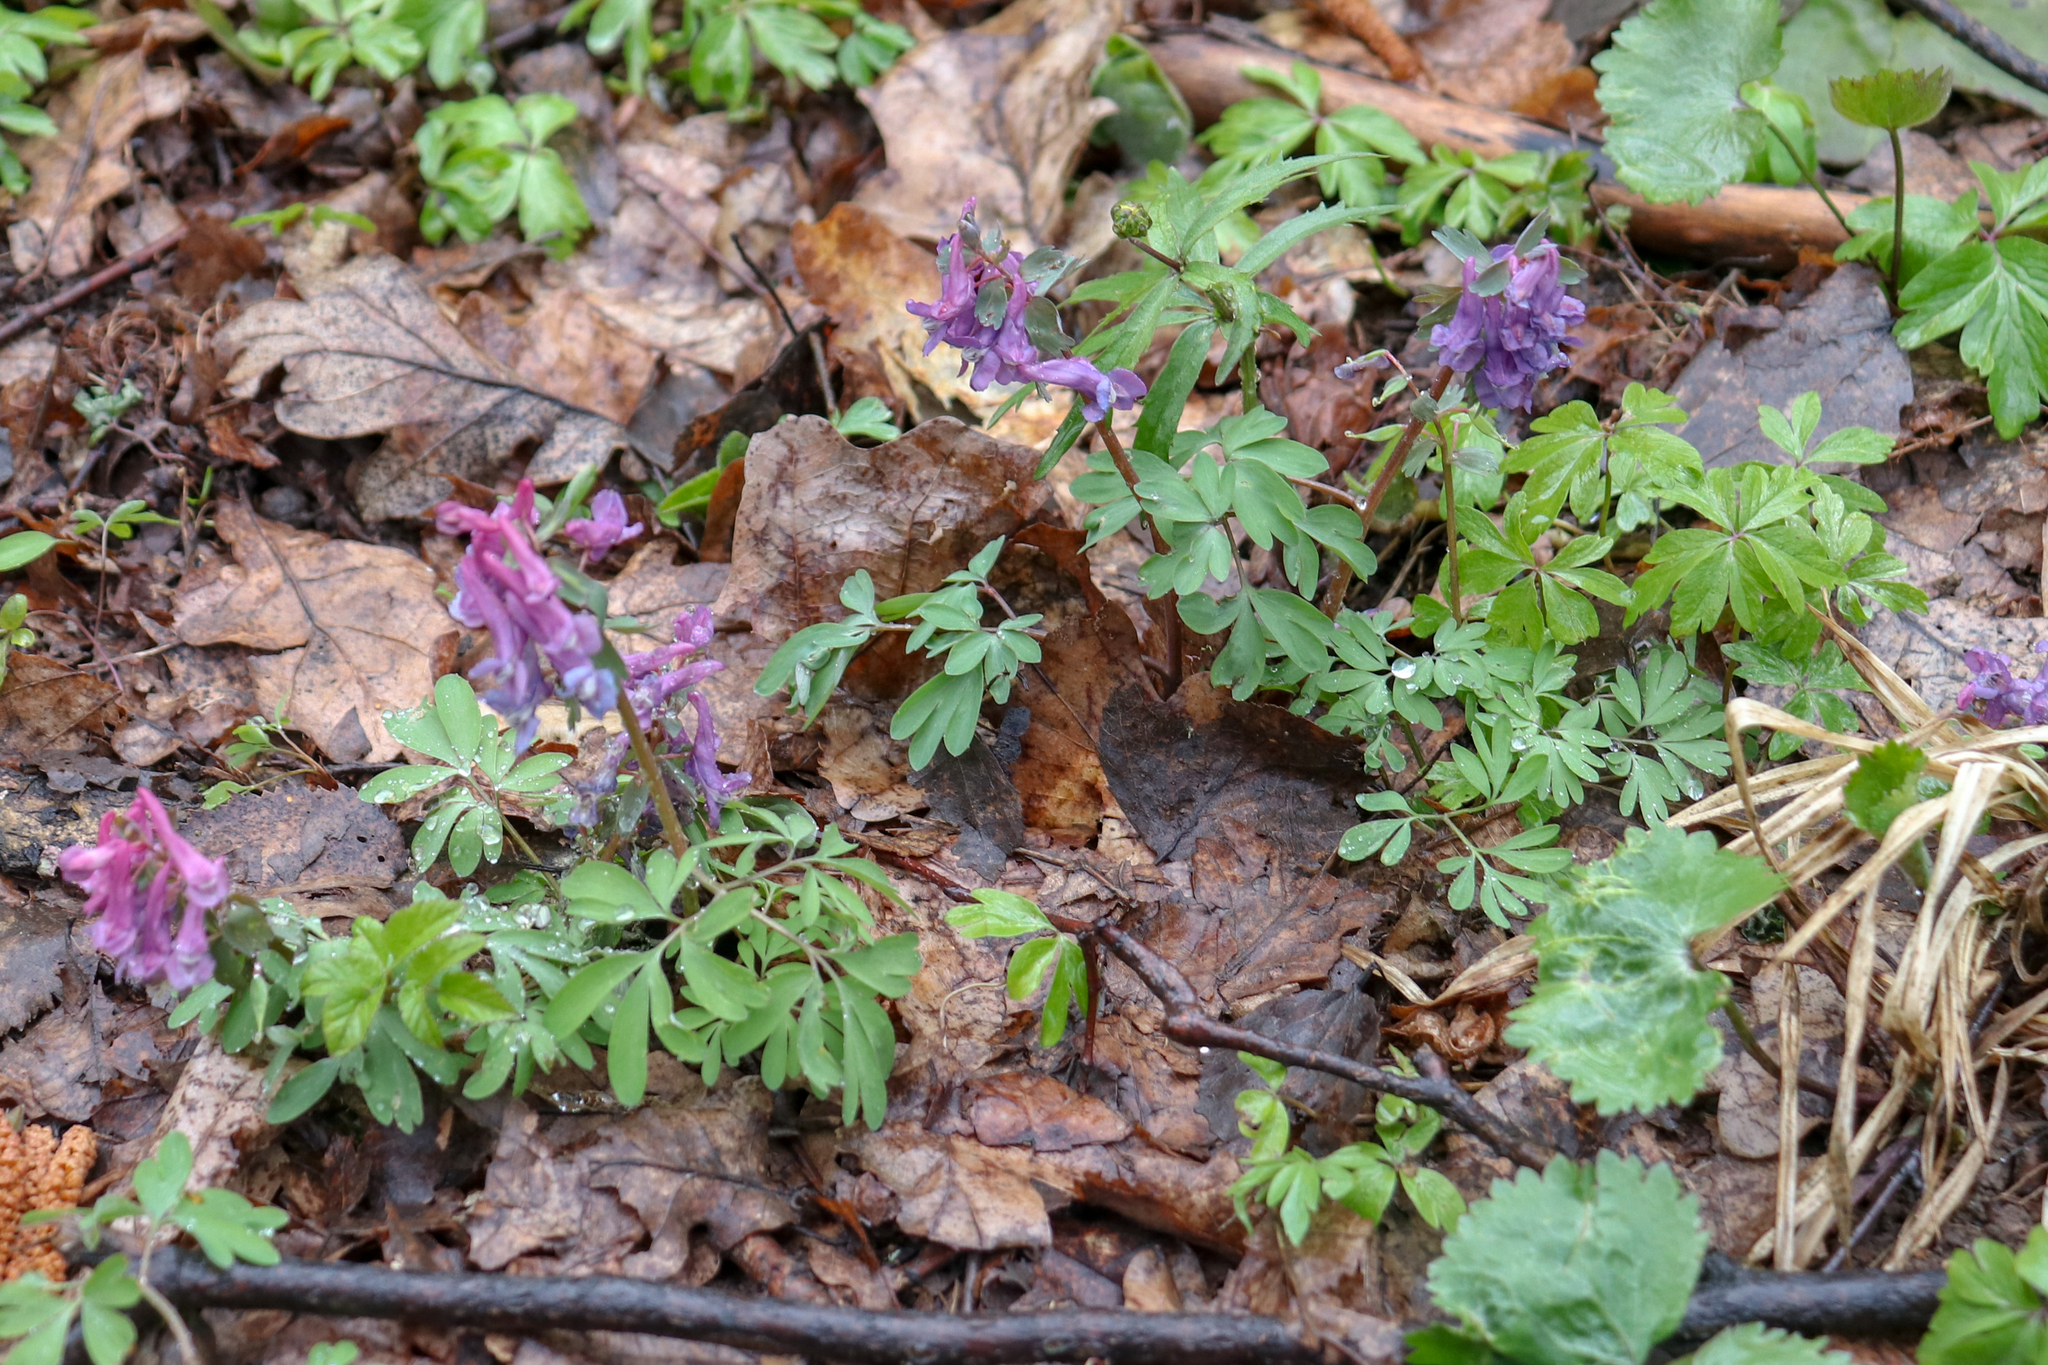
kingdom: Plantae
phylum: Tracheophyta
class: Magnoliopsida
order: Ranunculales
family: Papaveraceae
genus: Corydalis
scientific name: Corydalis solida
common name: Bird-in-a-bush
